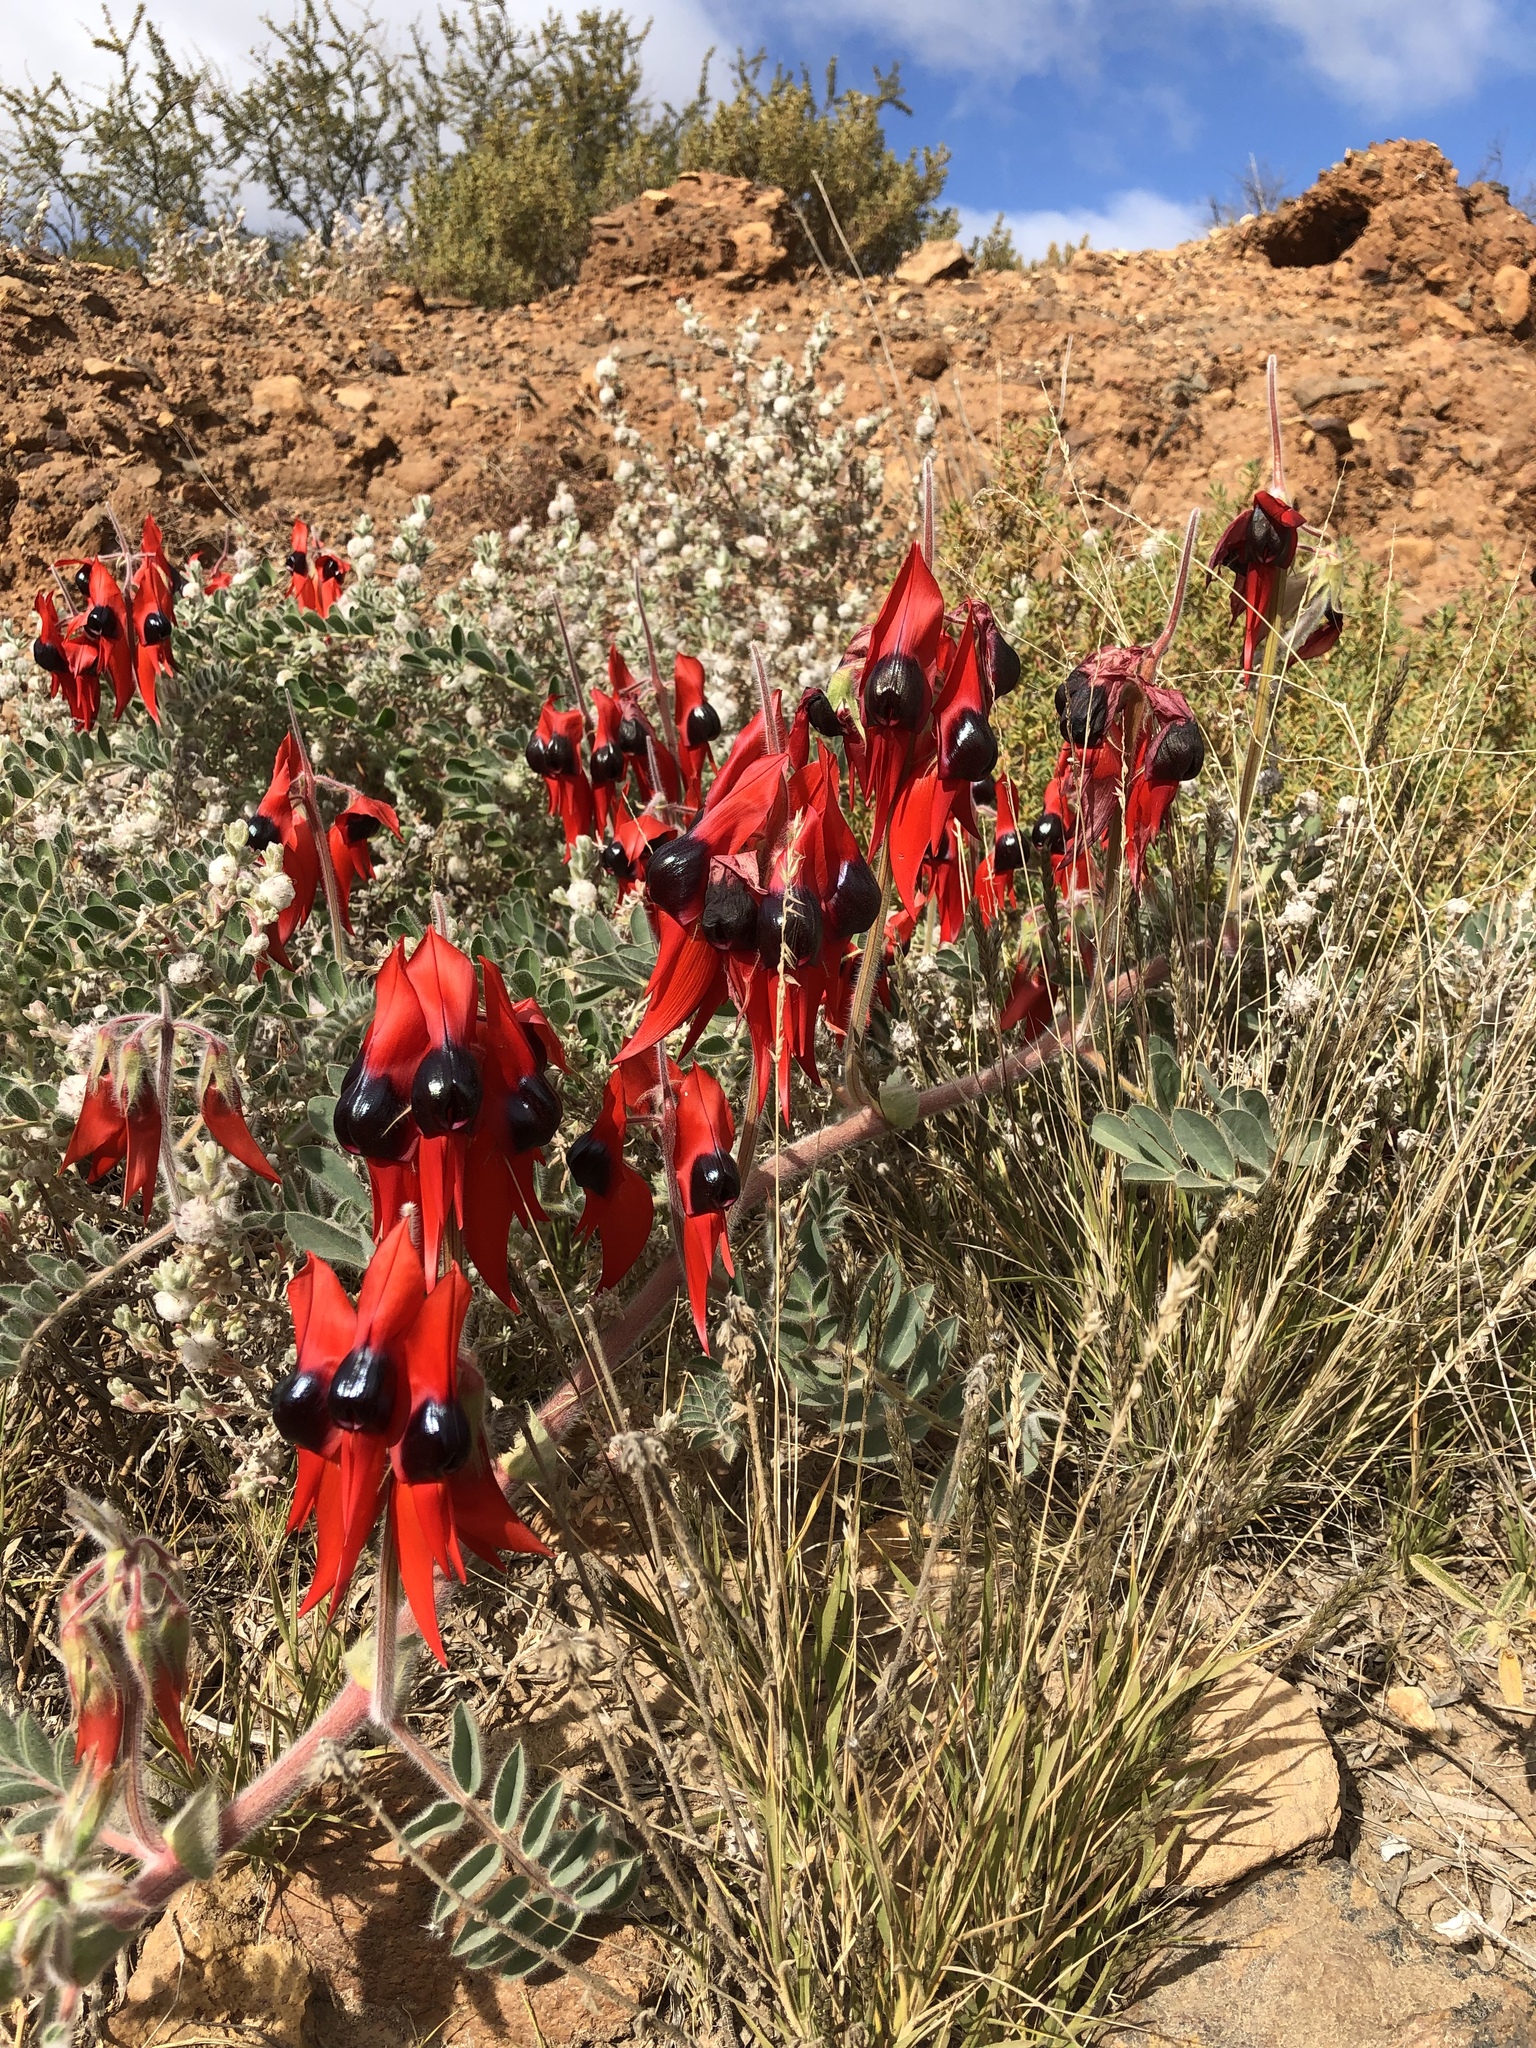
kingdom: Plantae
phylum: Tracheophyta
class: Magnoliopsida
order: Fabales
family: Fabaceae
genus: Swainsona
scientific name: Swainsona formosa
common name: Sturt's desert-pea
